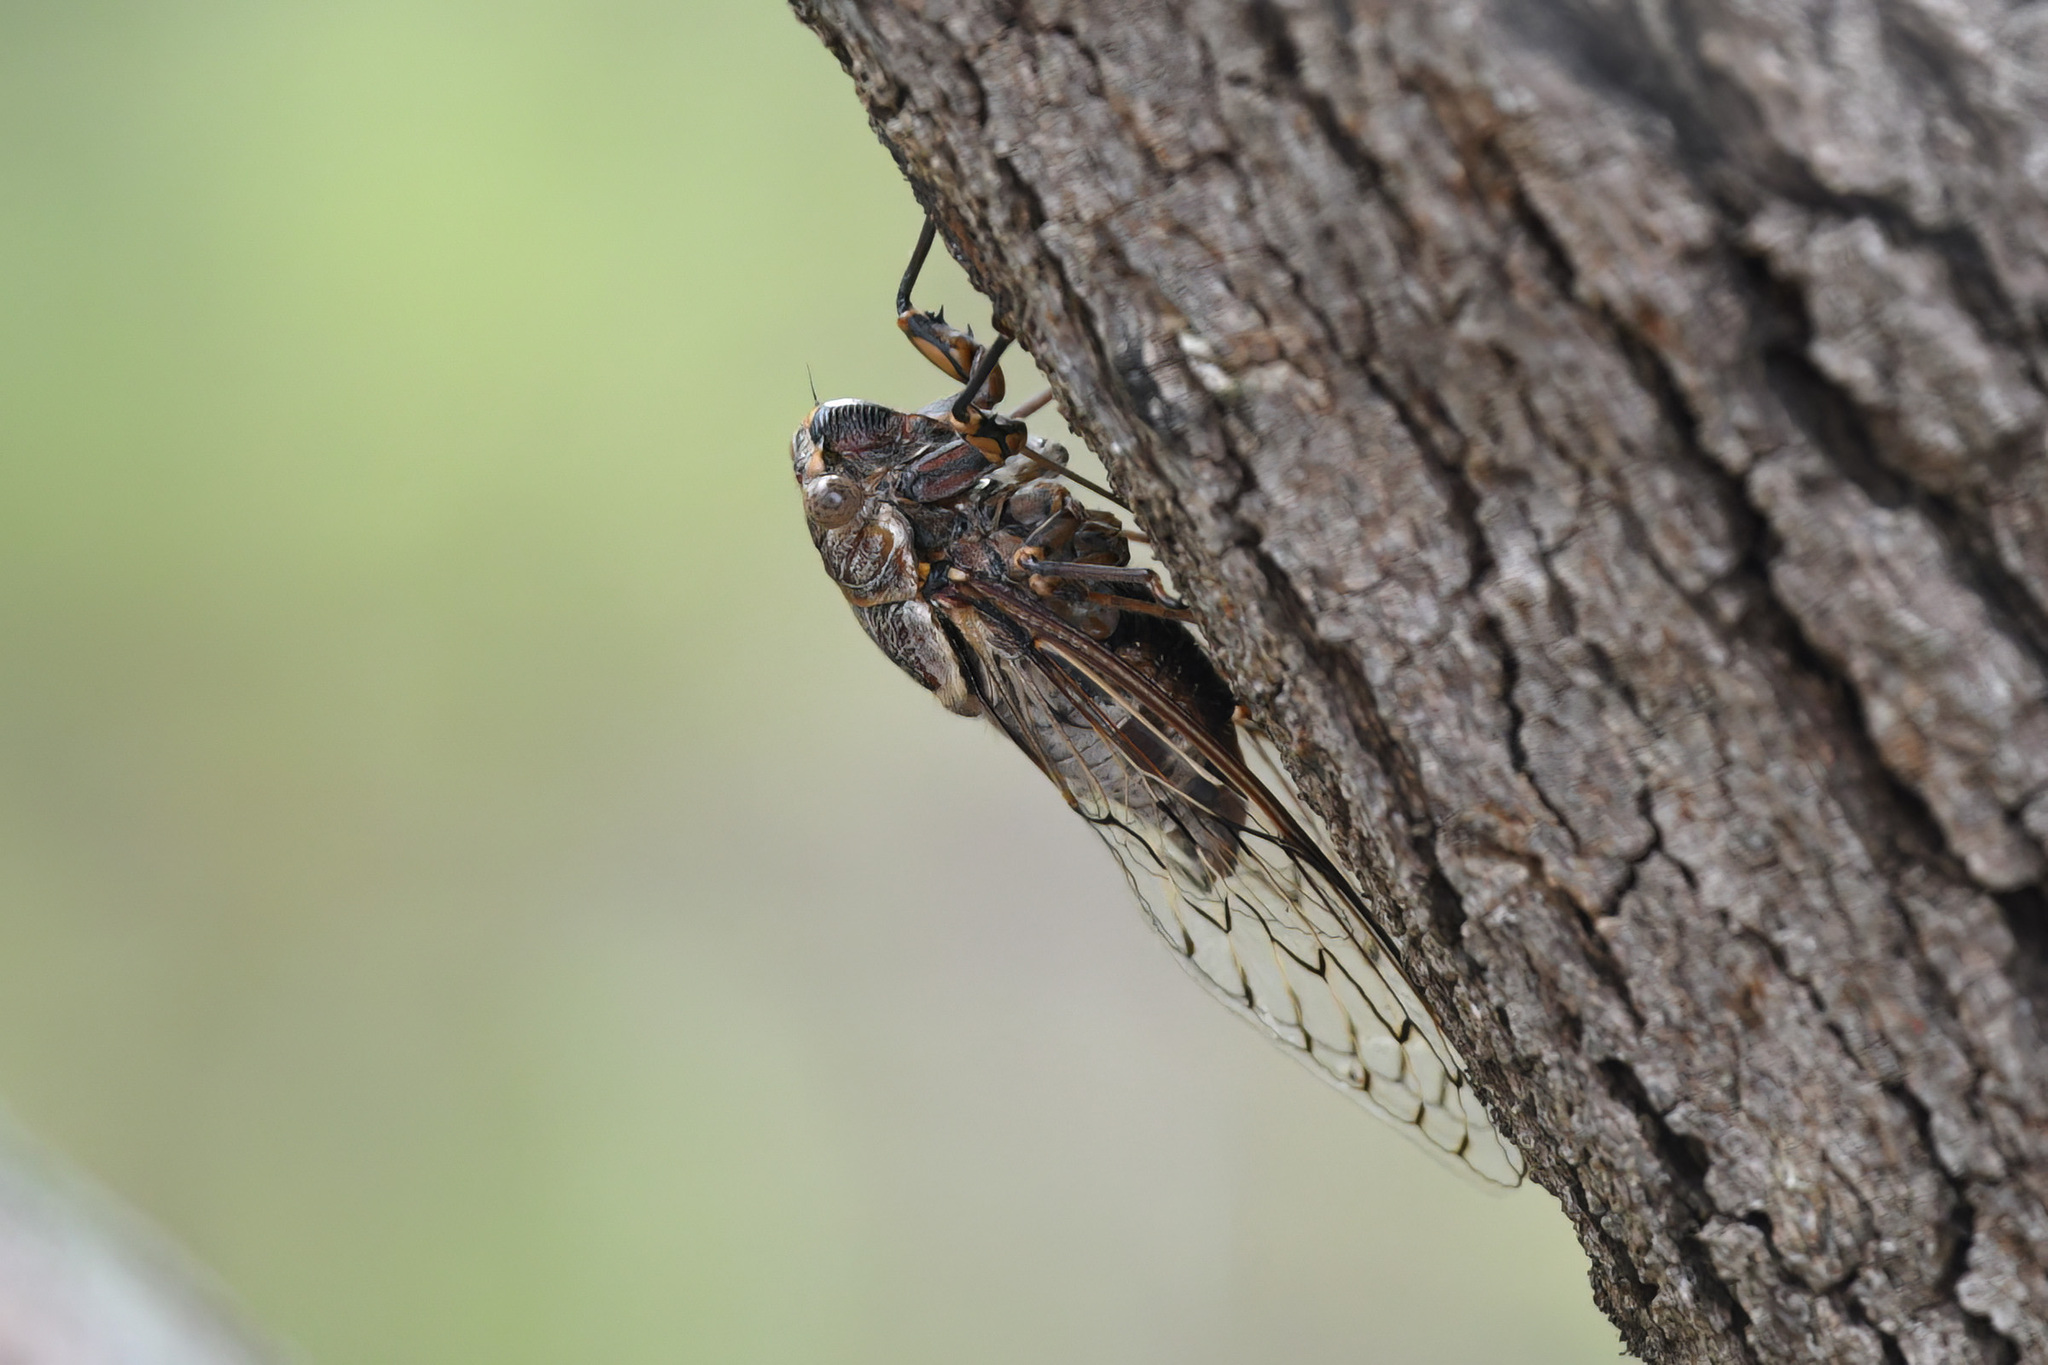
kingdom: Animalia
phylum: Arthropoda
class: Insecta
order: Hemiptera
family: Cicadidae
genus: Henicopsaltria
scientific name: Henicopsaltria eydouxii
